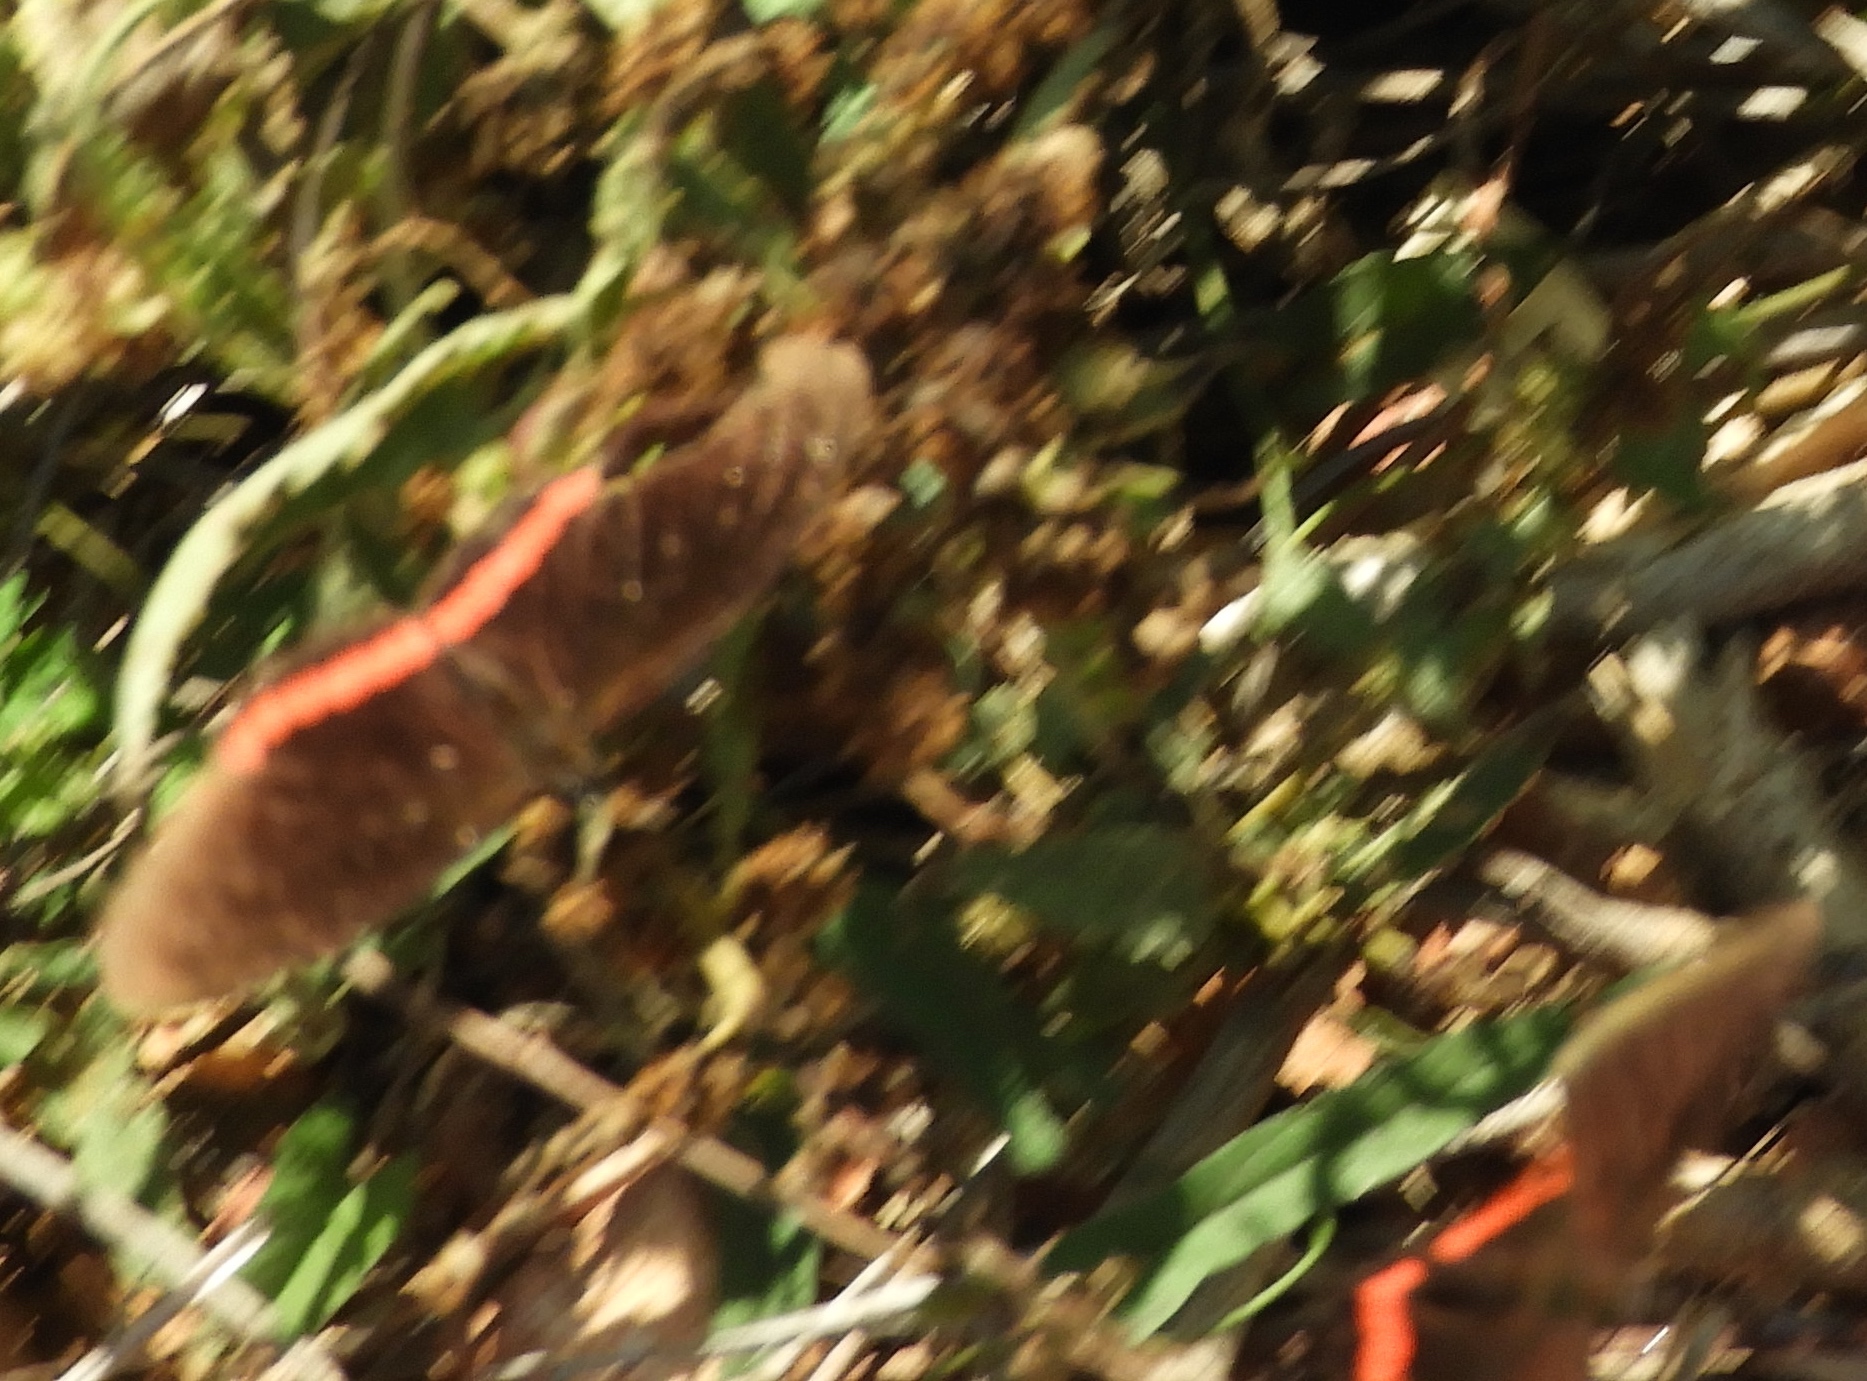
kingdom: Animalia
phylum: Arthropoda
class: Insecta
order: Lepidoptera
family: Nymphalidae
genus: Biblis
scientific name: Biblis aganisa
